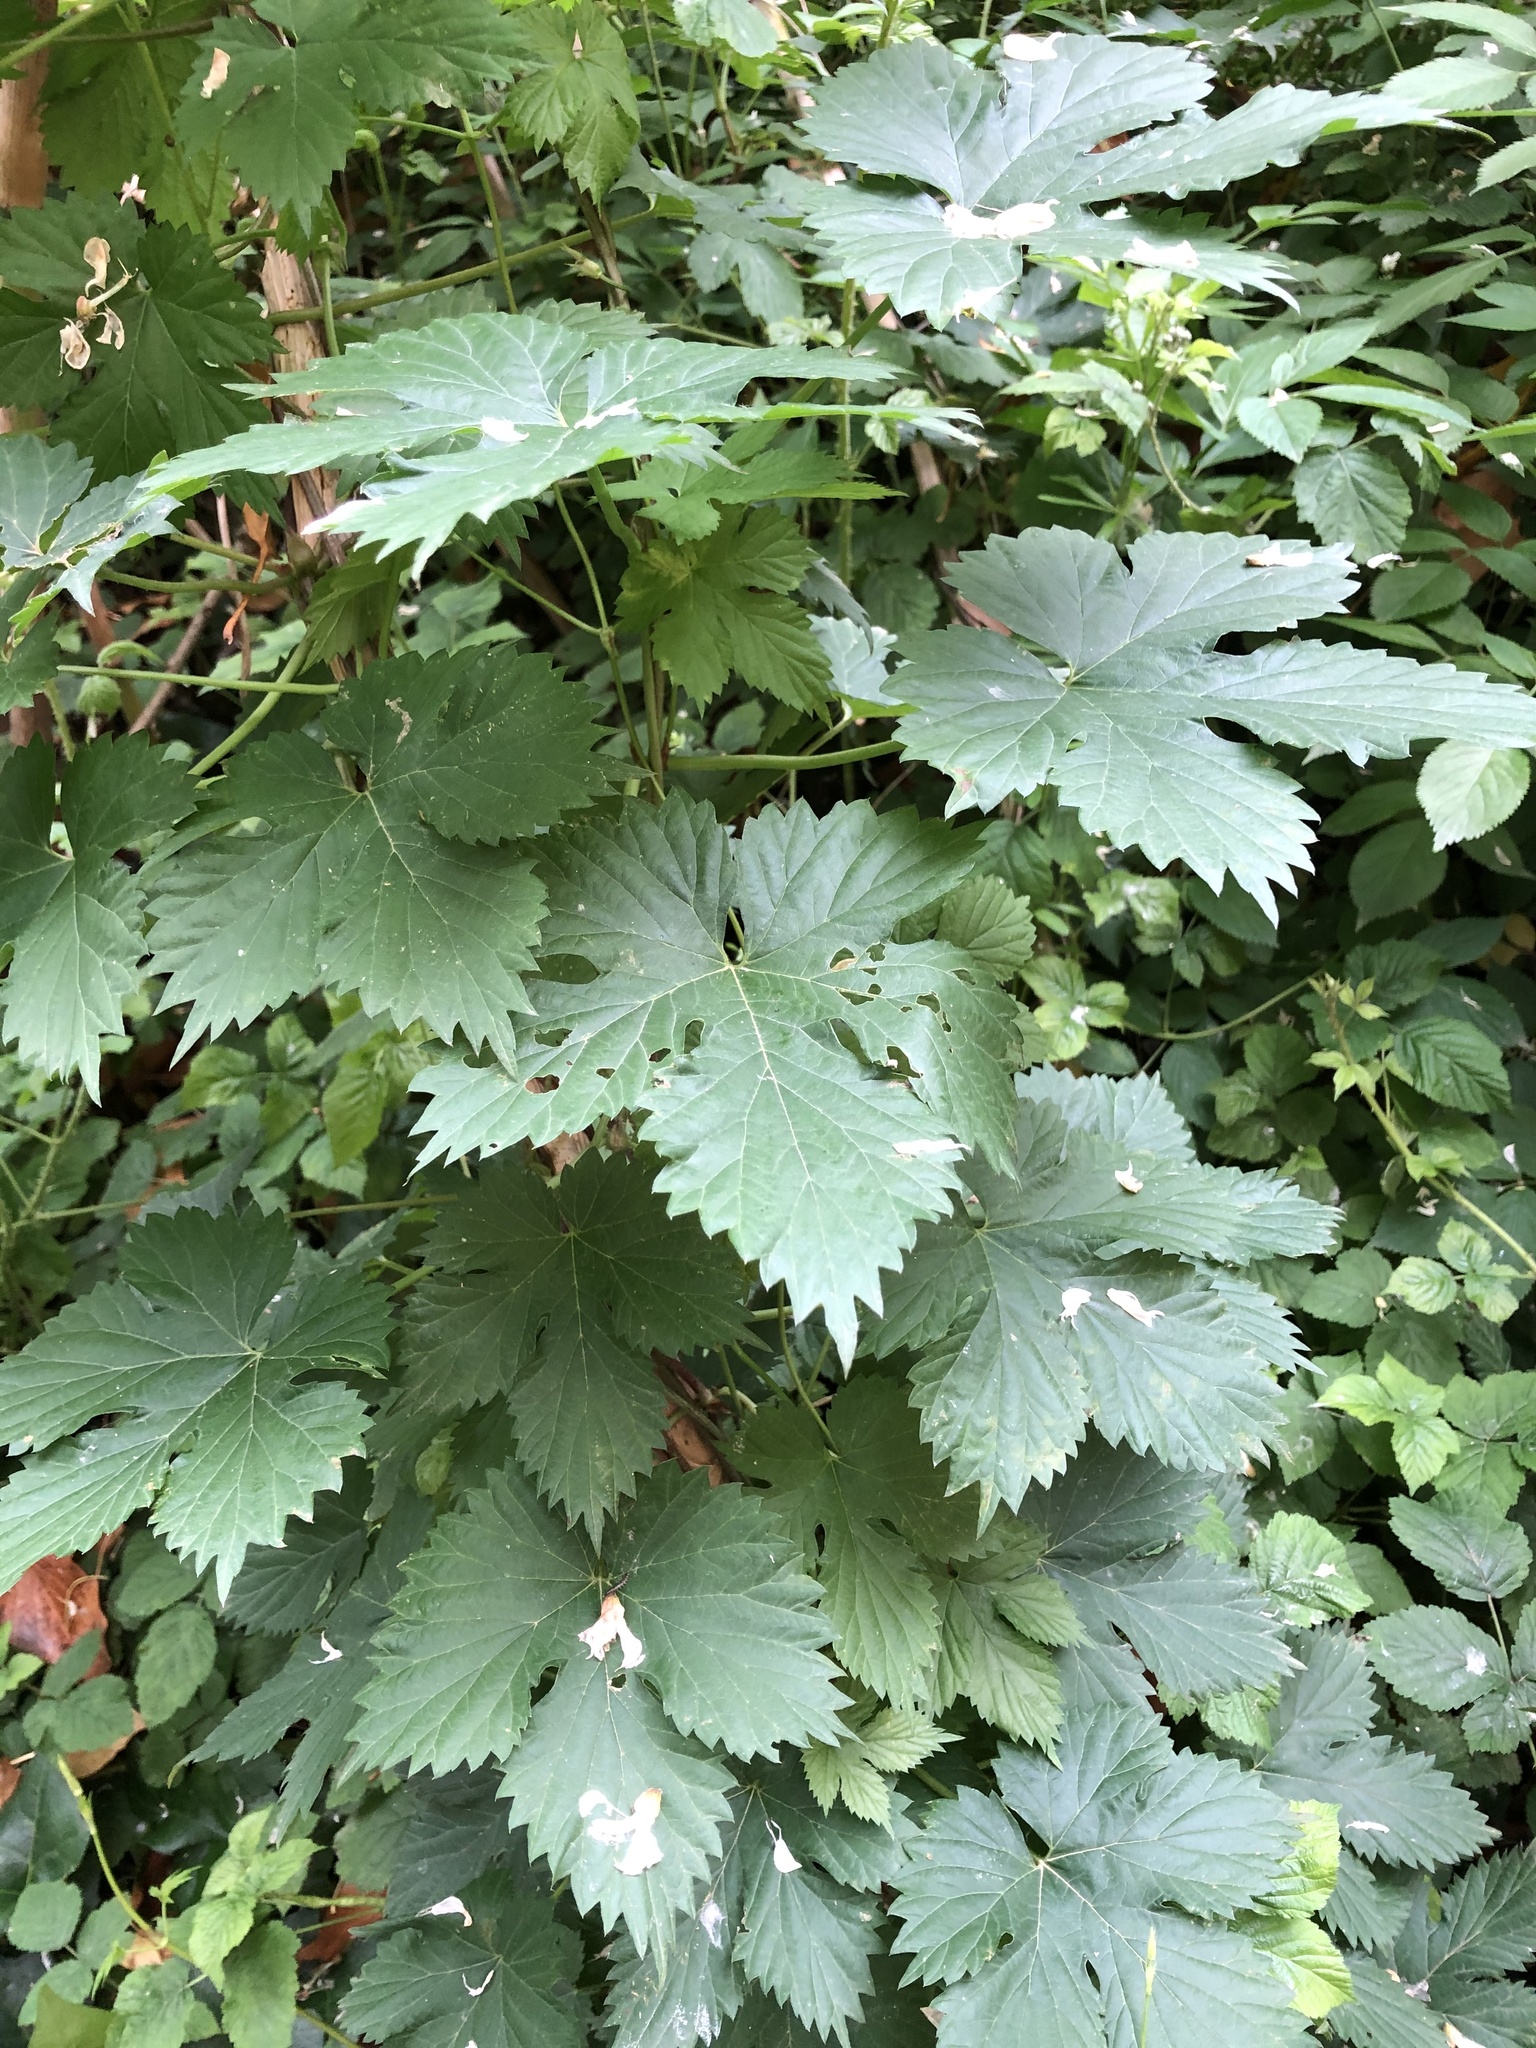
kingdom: Plantae
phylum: Tracheophyta
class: Magnoliopsida
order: Rosales
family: Cannabaceae
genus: Humulus
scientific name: Humulus lupulus
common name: Hop
